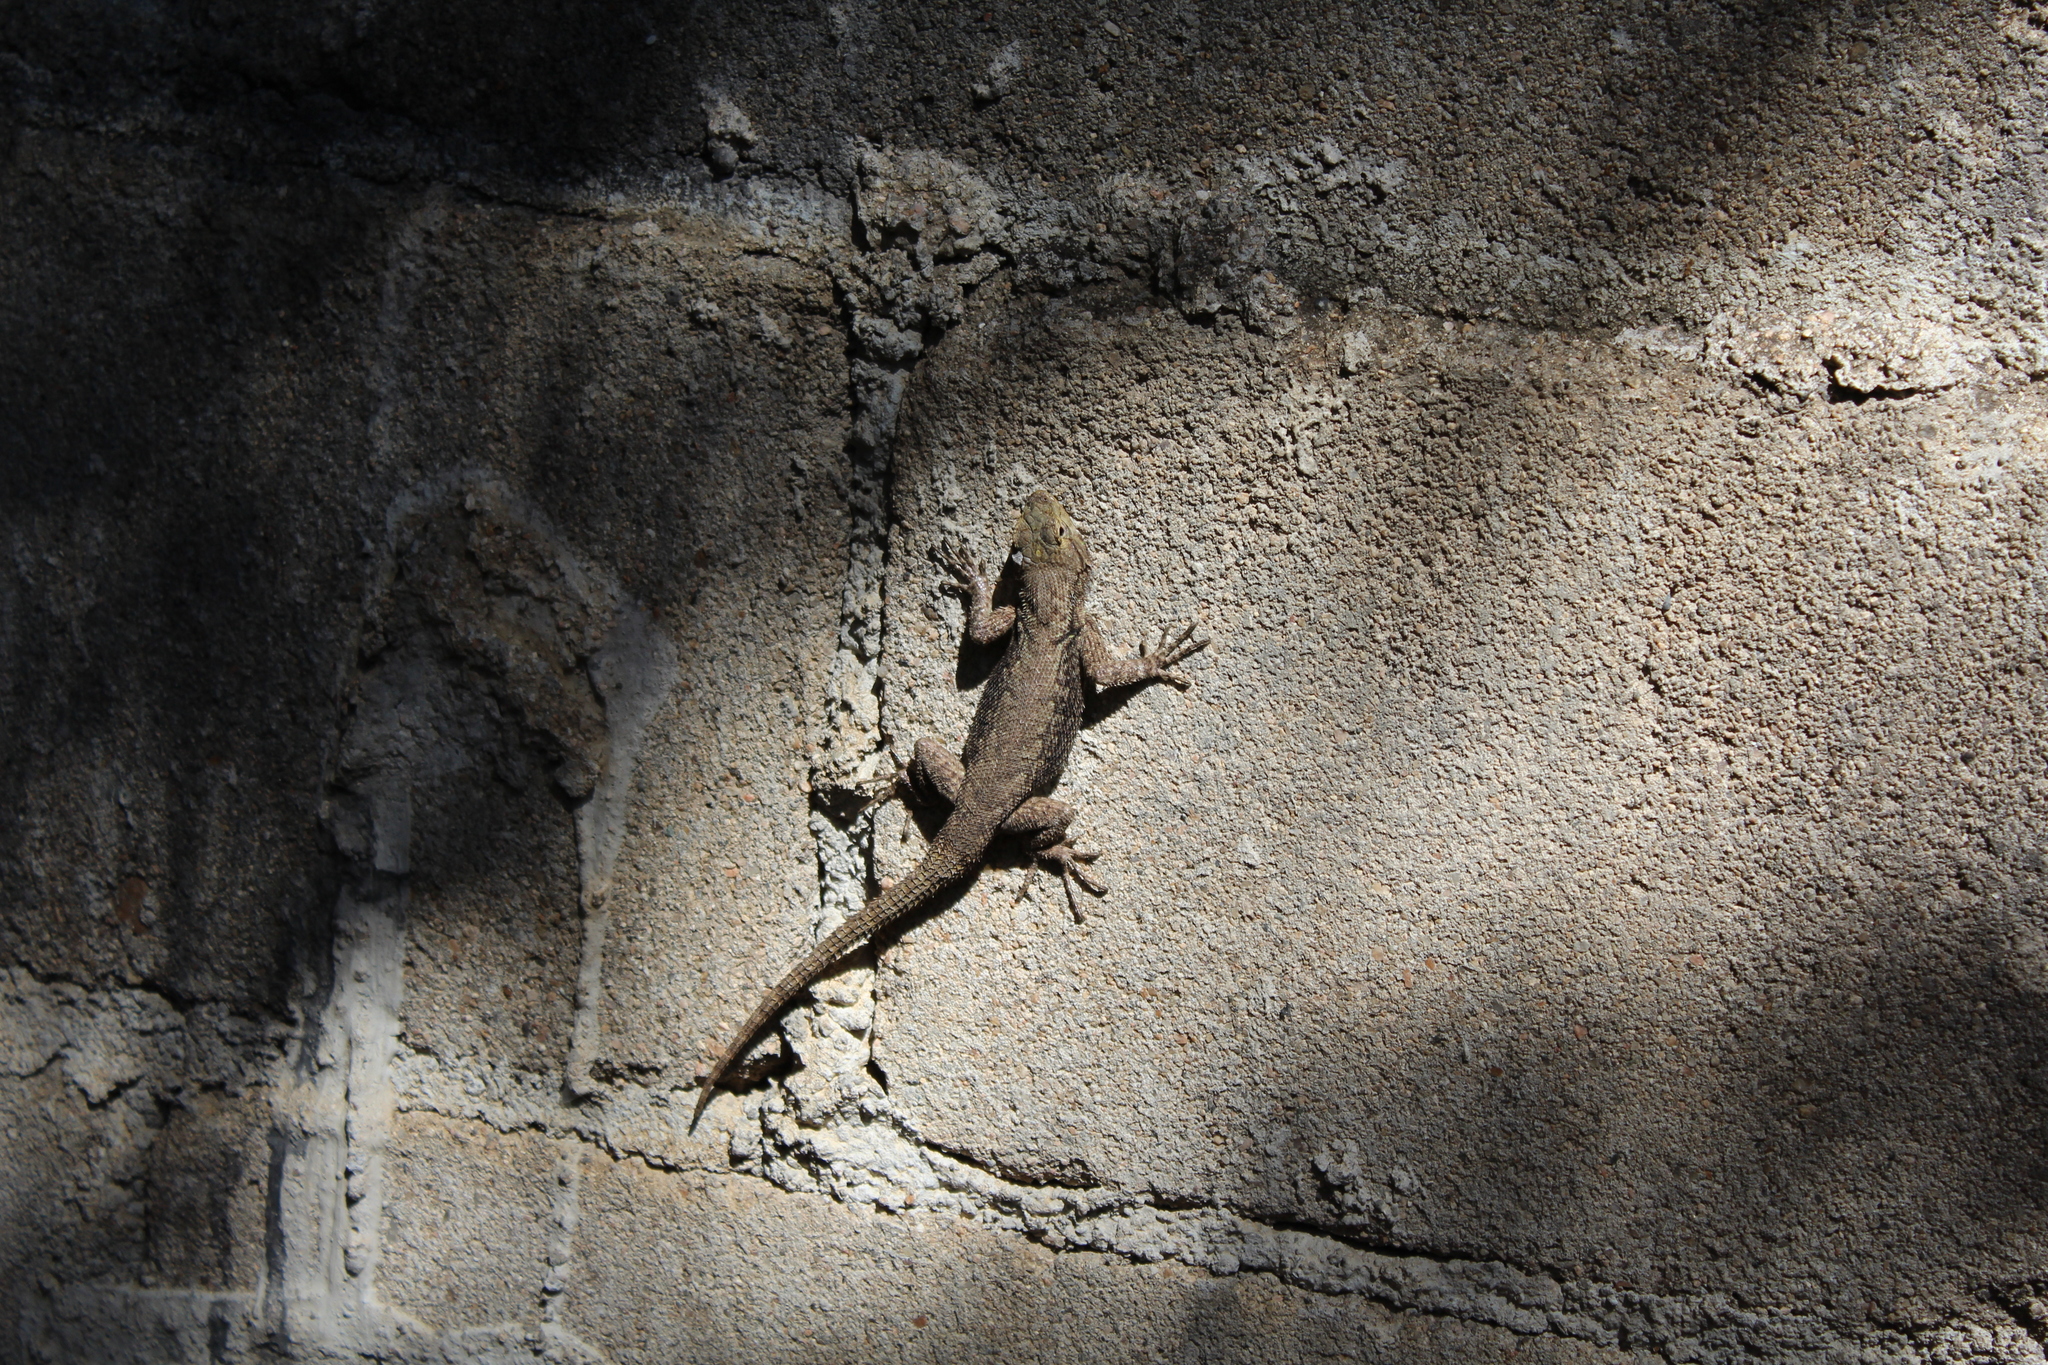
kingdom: Animalia
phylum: Chordata
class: Squamata
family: Phrynosomatidae
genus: Sceloporus
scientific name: Sceloporus grammicus
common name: Mesquite lizard
